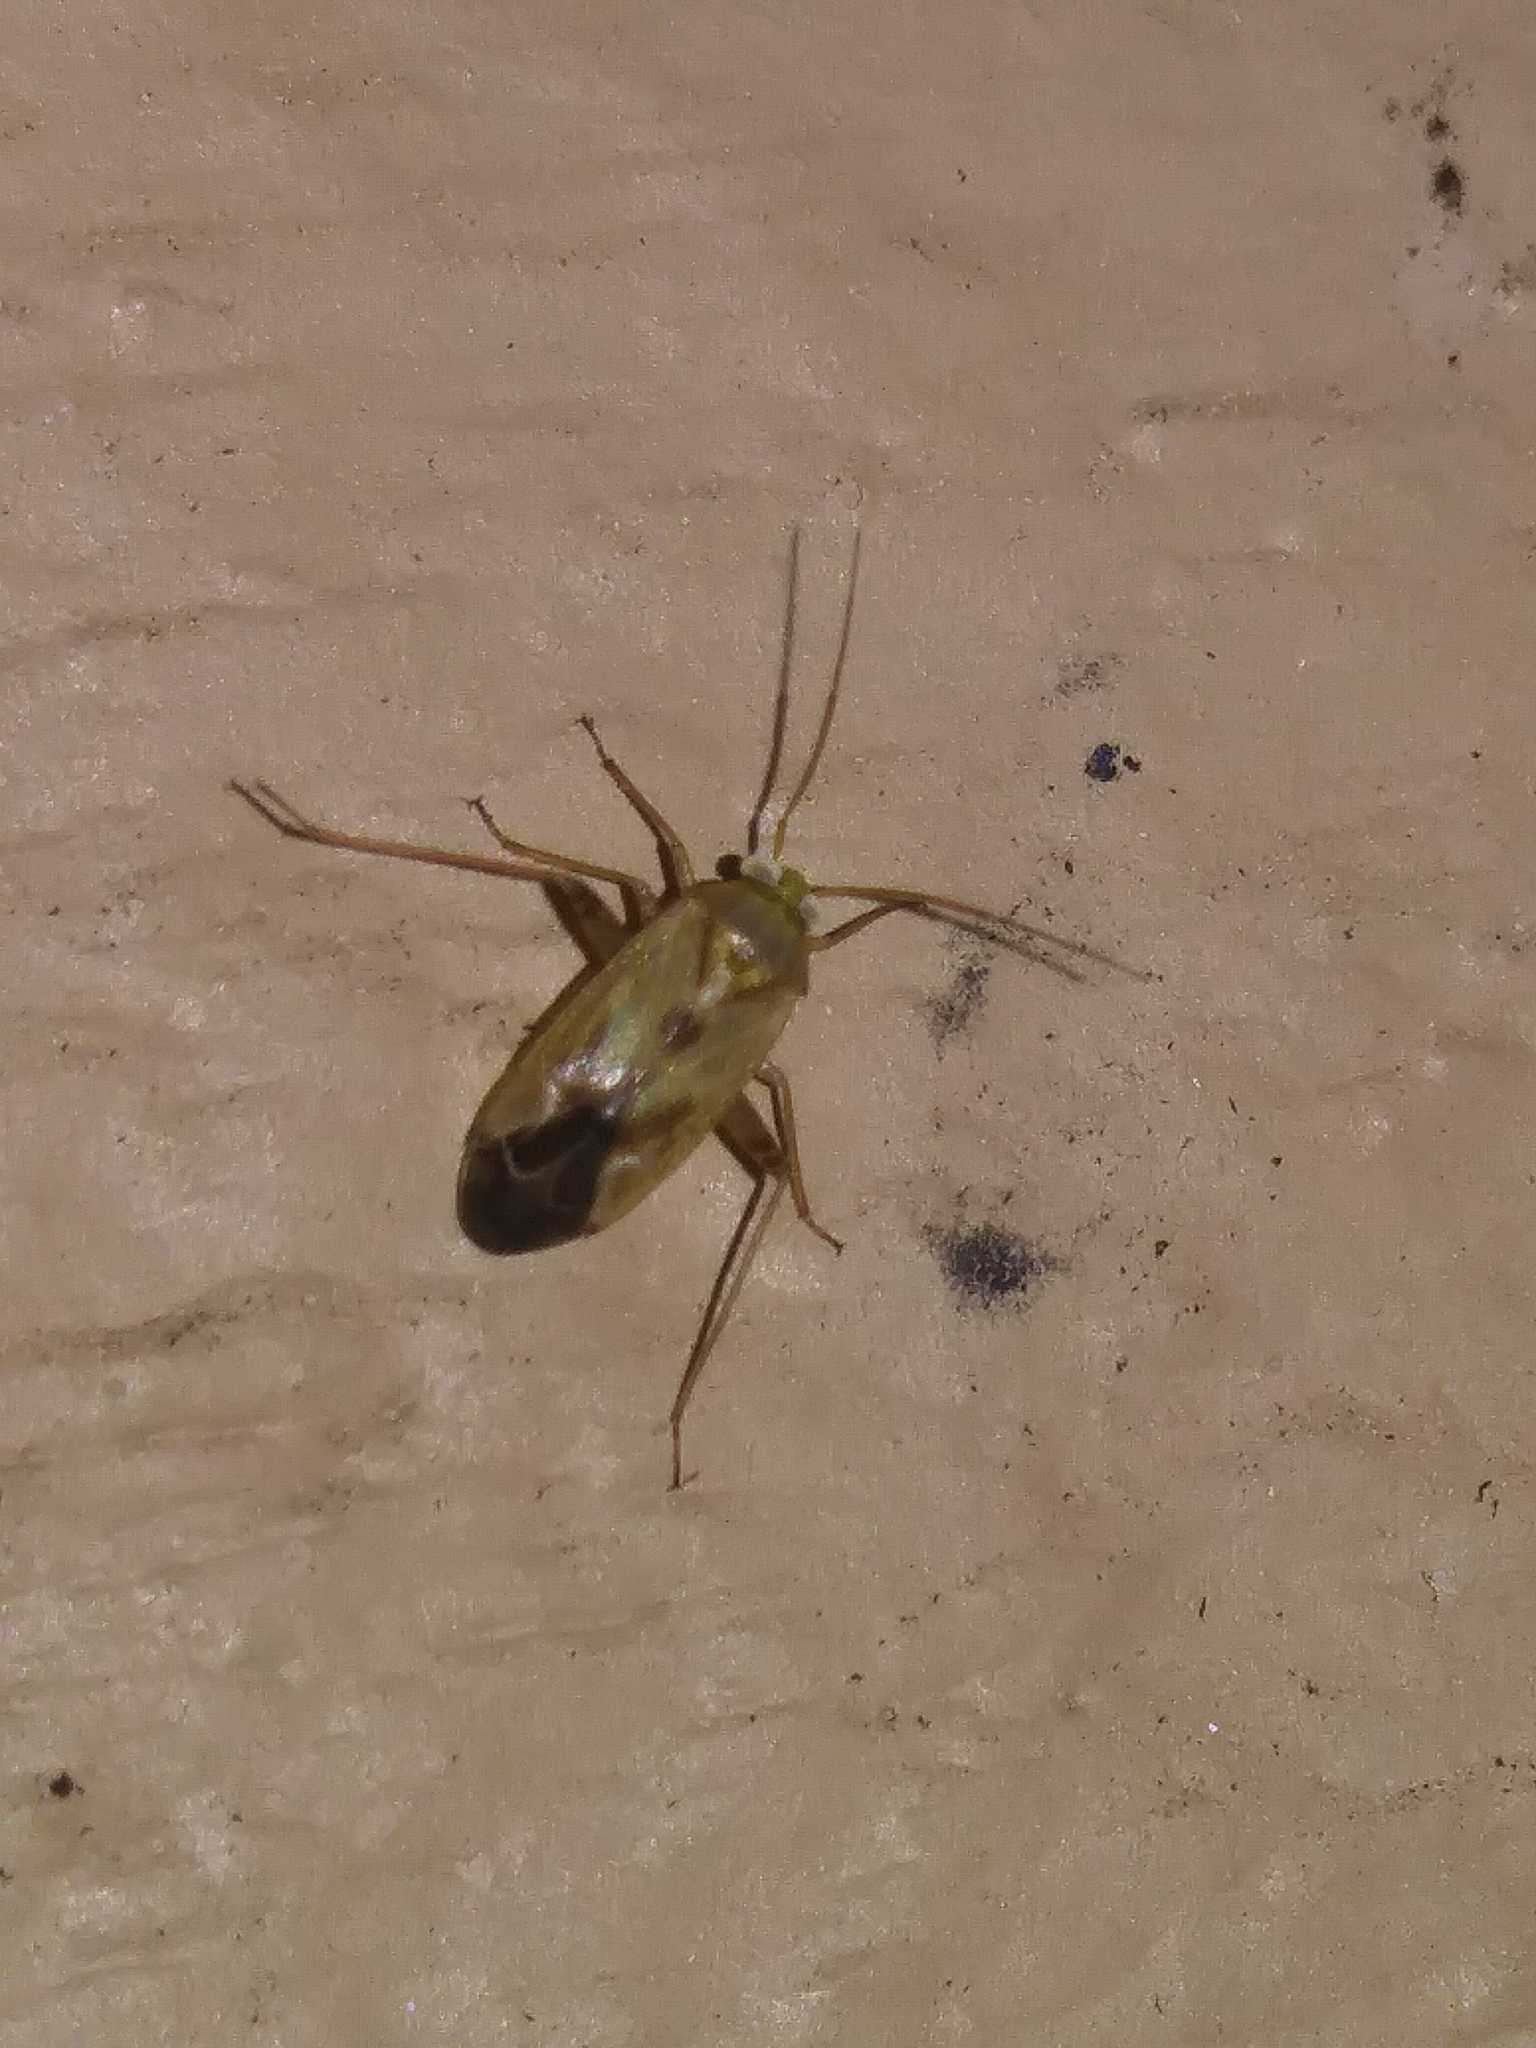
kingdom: Animalia
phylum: Arthropoda
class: Insecta
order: Hemiptera
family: Miridae
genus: Taylorilygus
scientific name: Taylorilygus apicalis
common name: Plant bug
